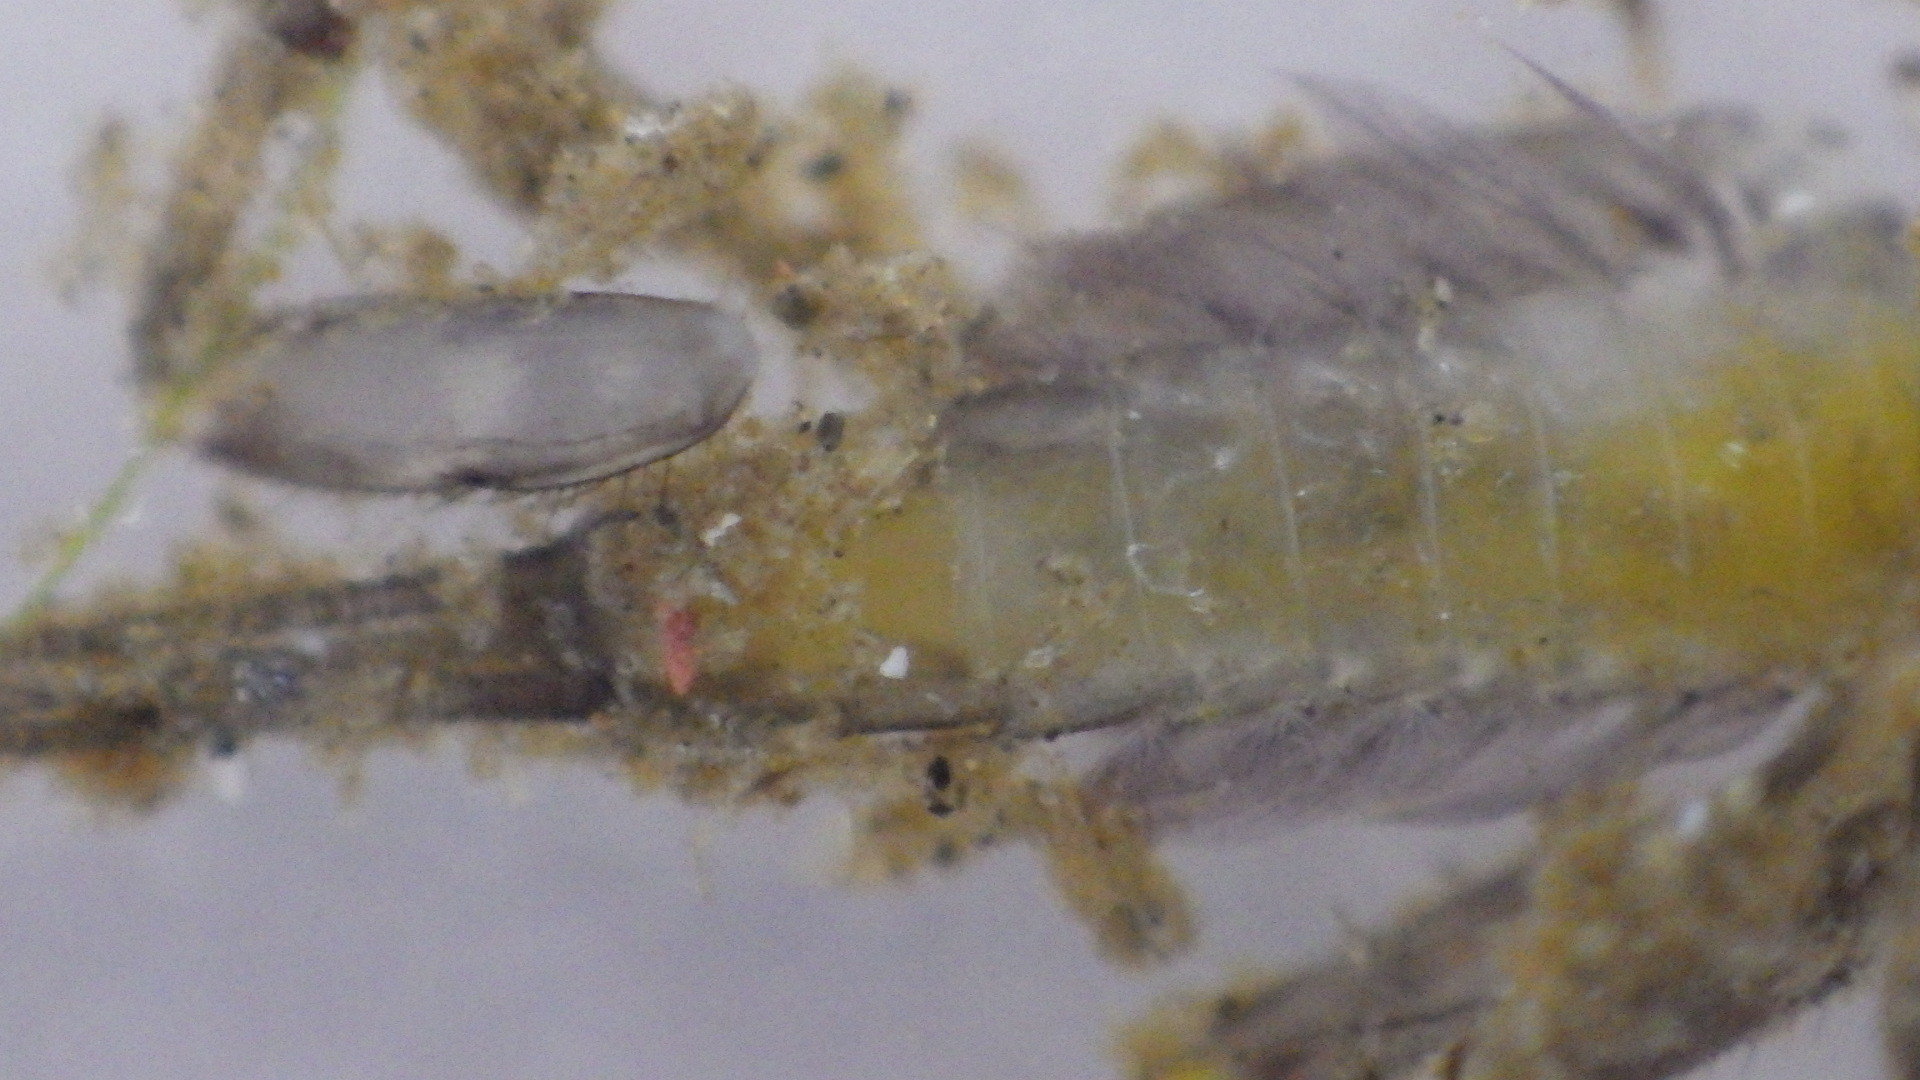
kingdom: Animalia
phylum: Arthropoda
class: Insecta
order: Ephemeroptera
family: Heptageniidae
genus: Stenacron
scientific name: Stenacron interpunctatum
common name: Orange cahill
